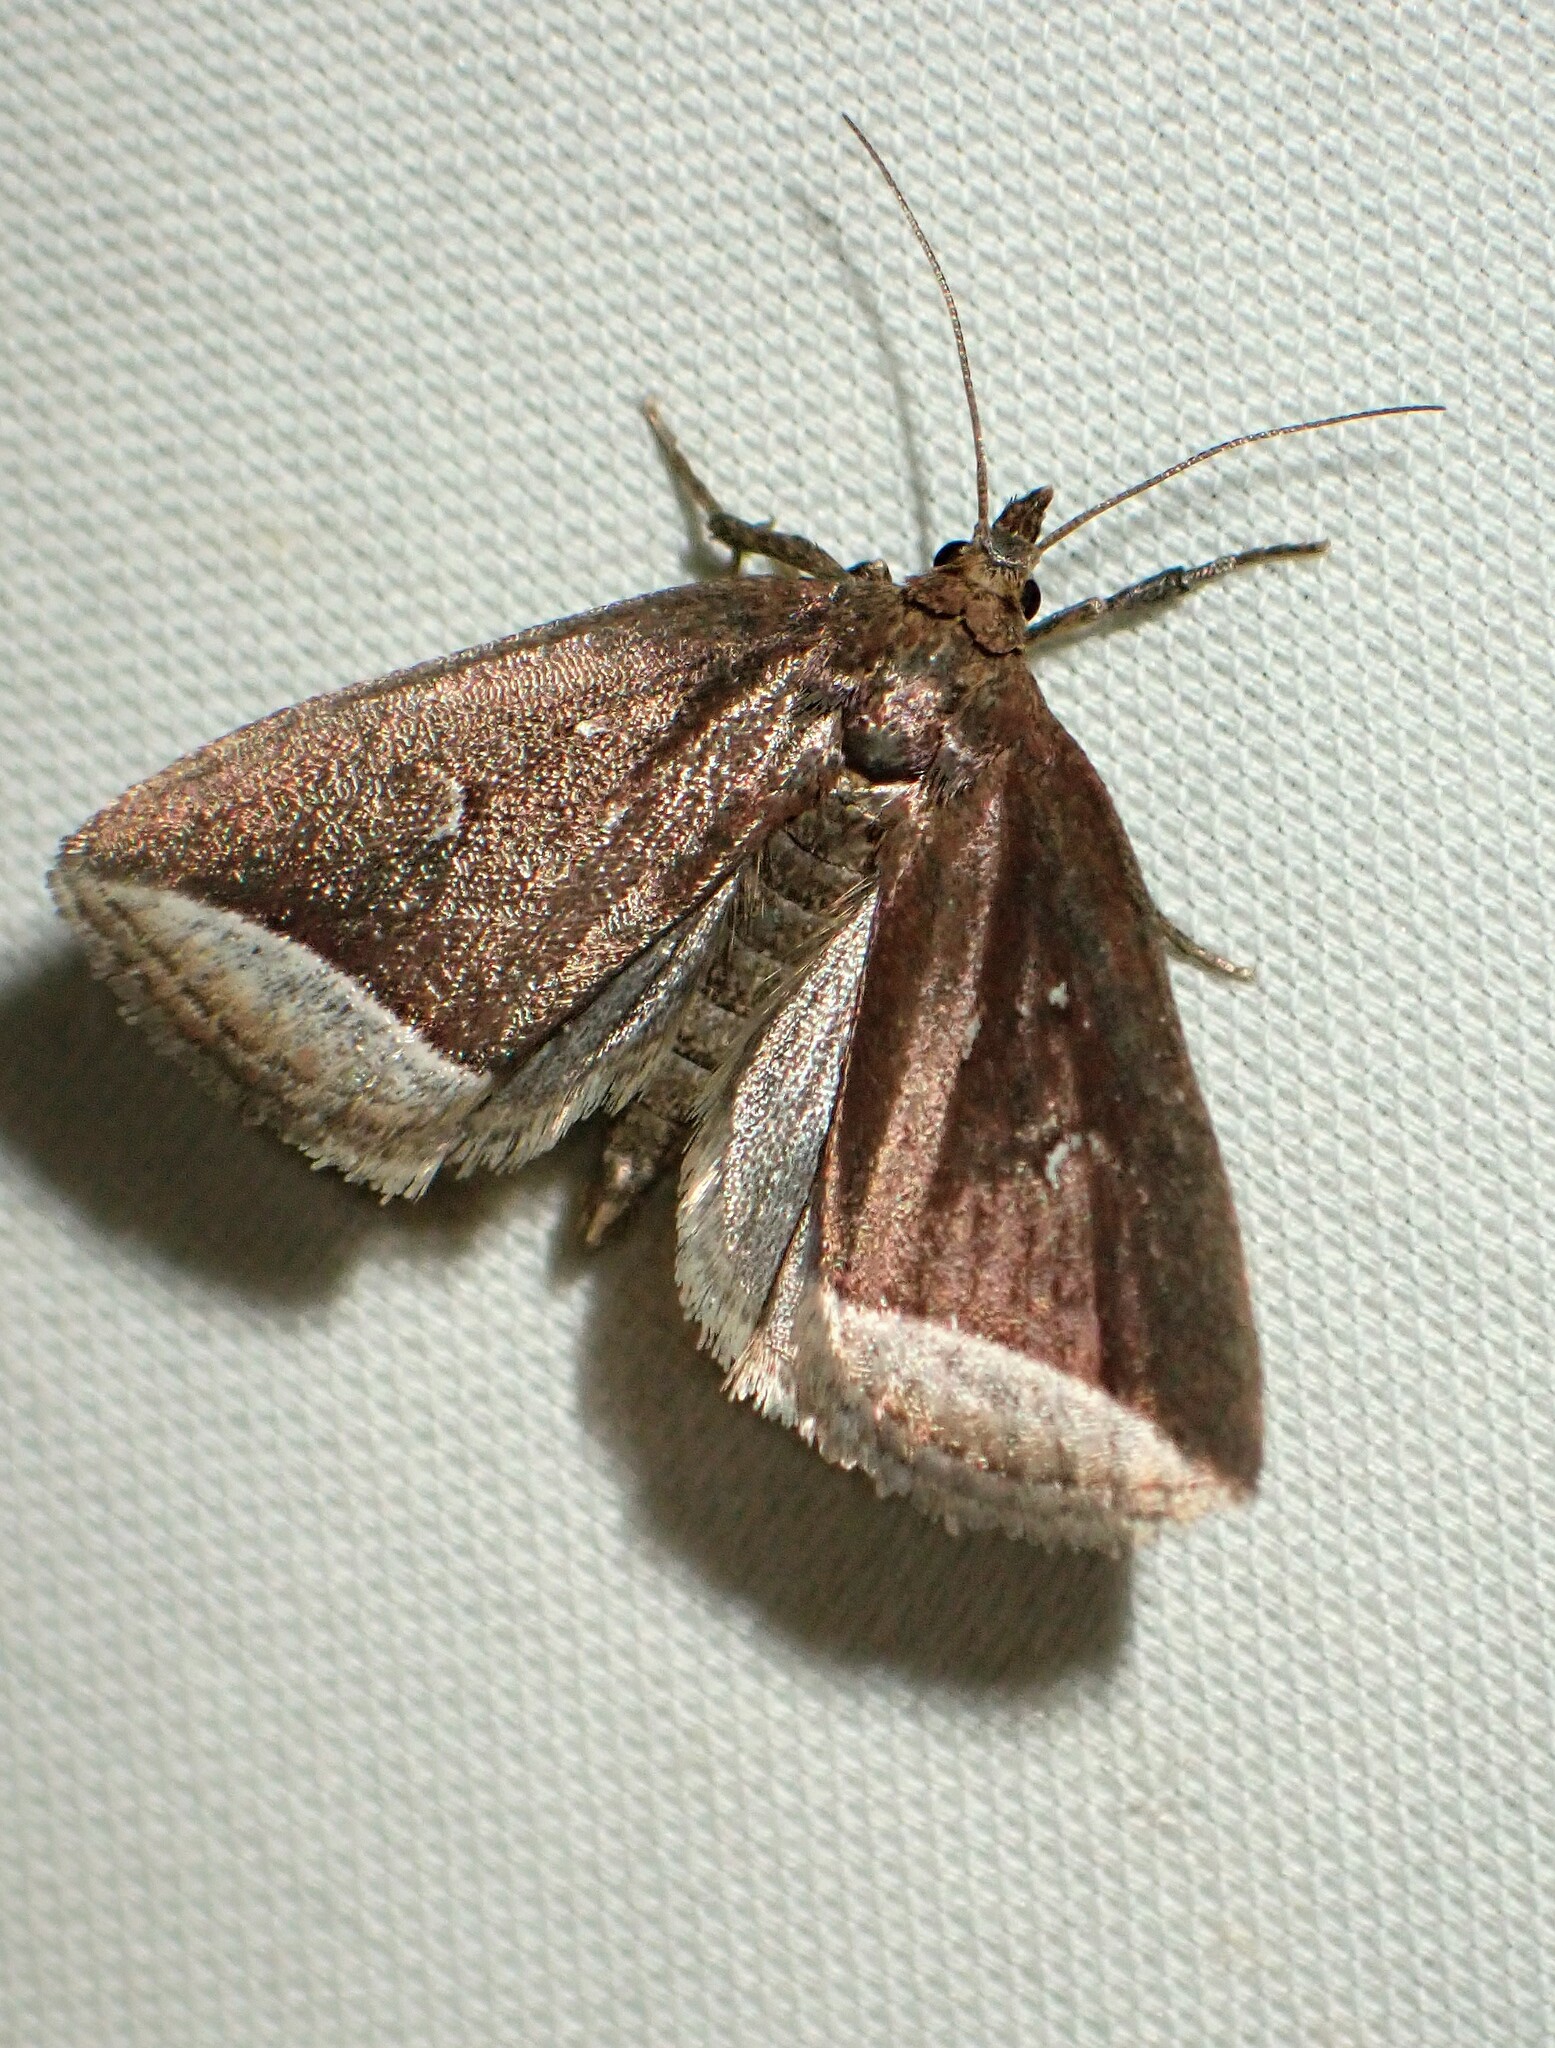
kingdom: Animalia
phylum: Arthropoda
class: Insecta
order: Lepidoptera
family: Erebidae
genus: Capis
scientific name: Capis curvata
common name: Curved halter moth
